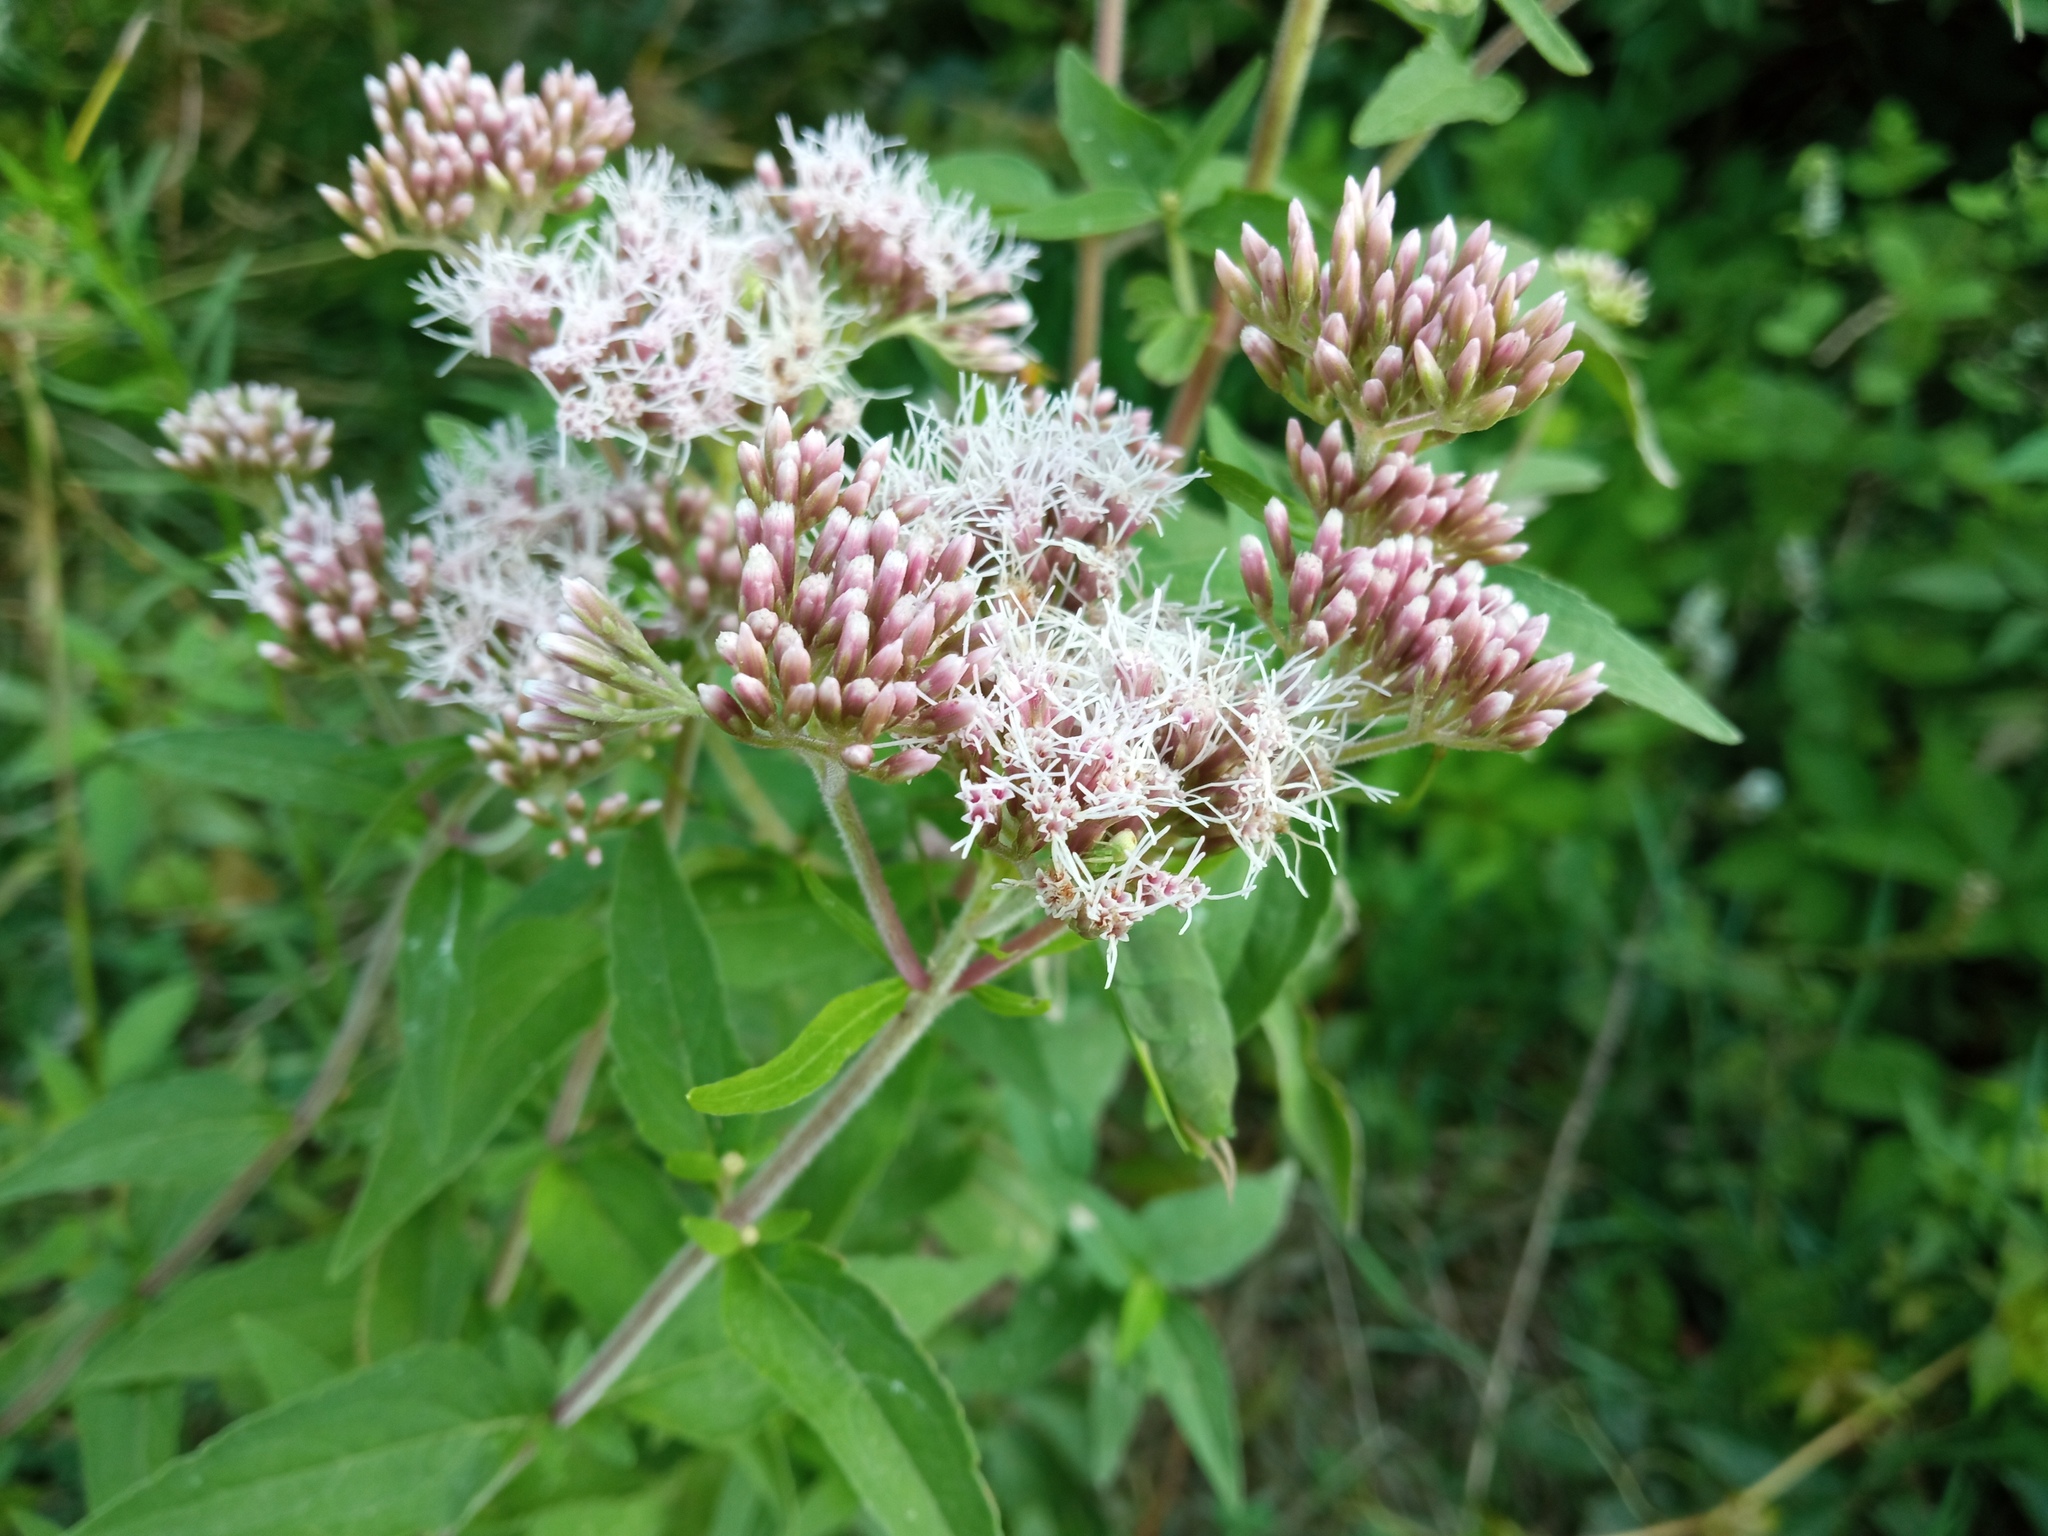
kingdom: Plantae
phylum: Tracheophyta
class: Magnoliopsida
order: Asterales
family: Asteraceae
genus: Eupatorium
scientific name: Eupatorium cannabinum
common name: Hemp-agrimony
